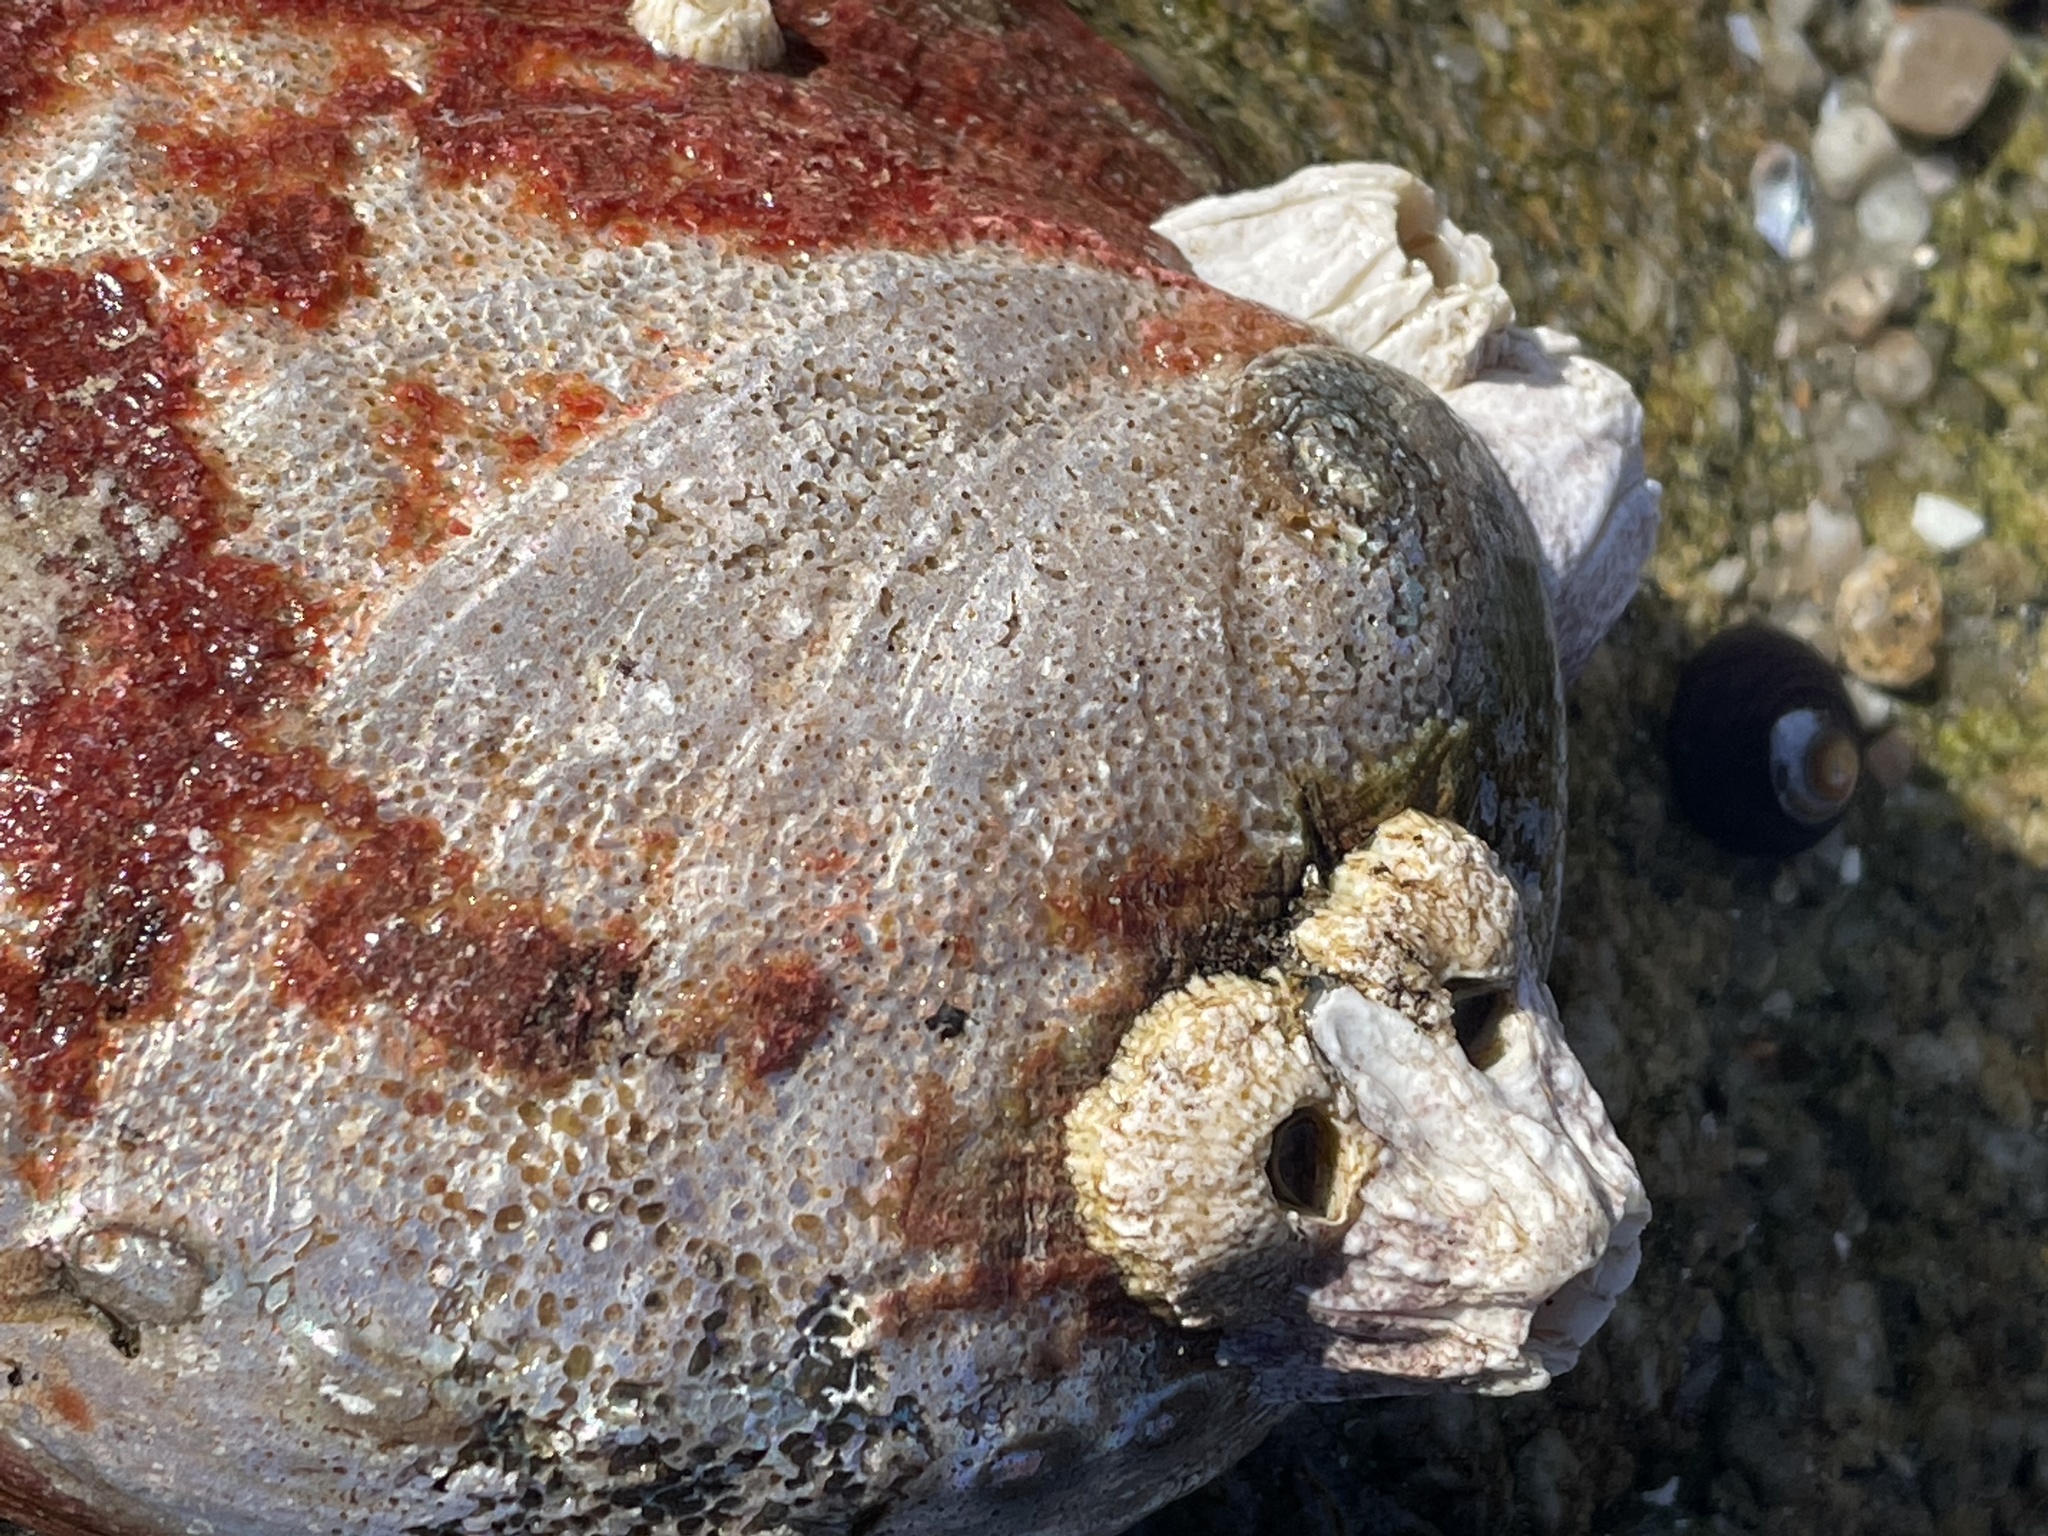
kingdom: Animalia
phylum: Mollusca
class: Gastropoda
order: Lepetellida
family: Haliotidae
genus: Haliotis
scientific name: Haliotis rufescens
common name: Red abalone
